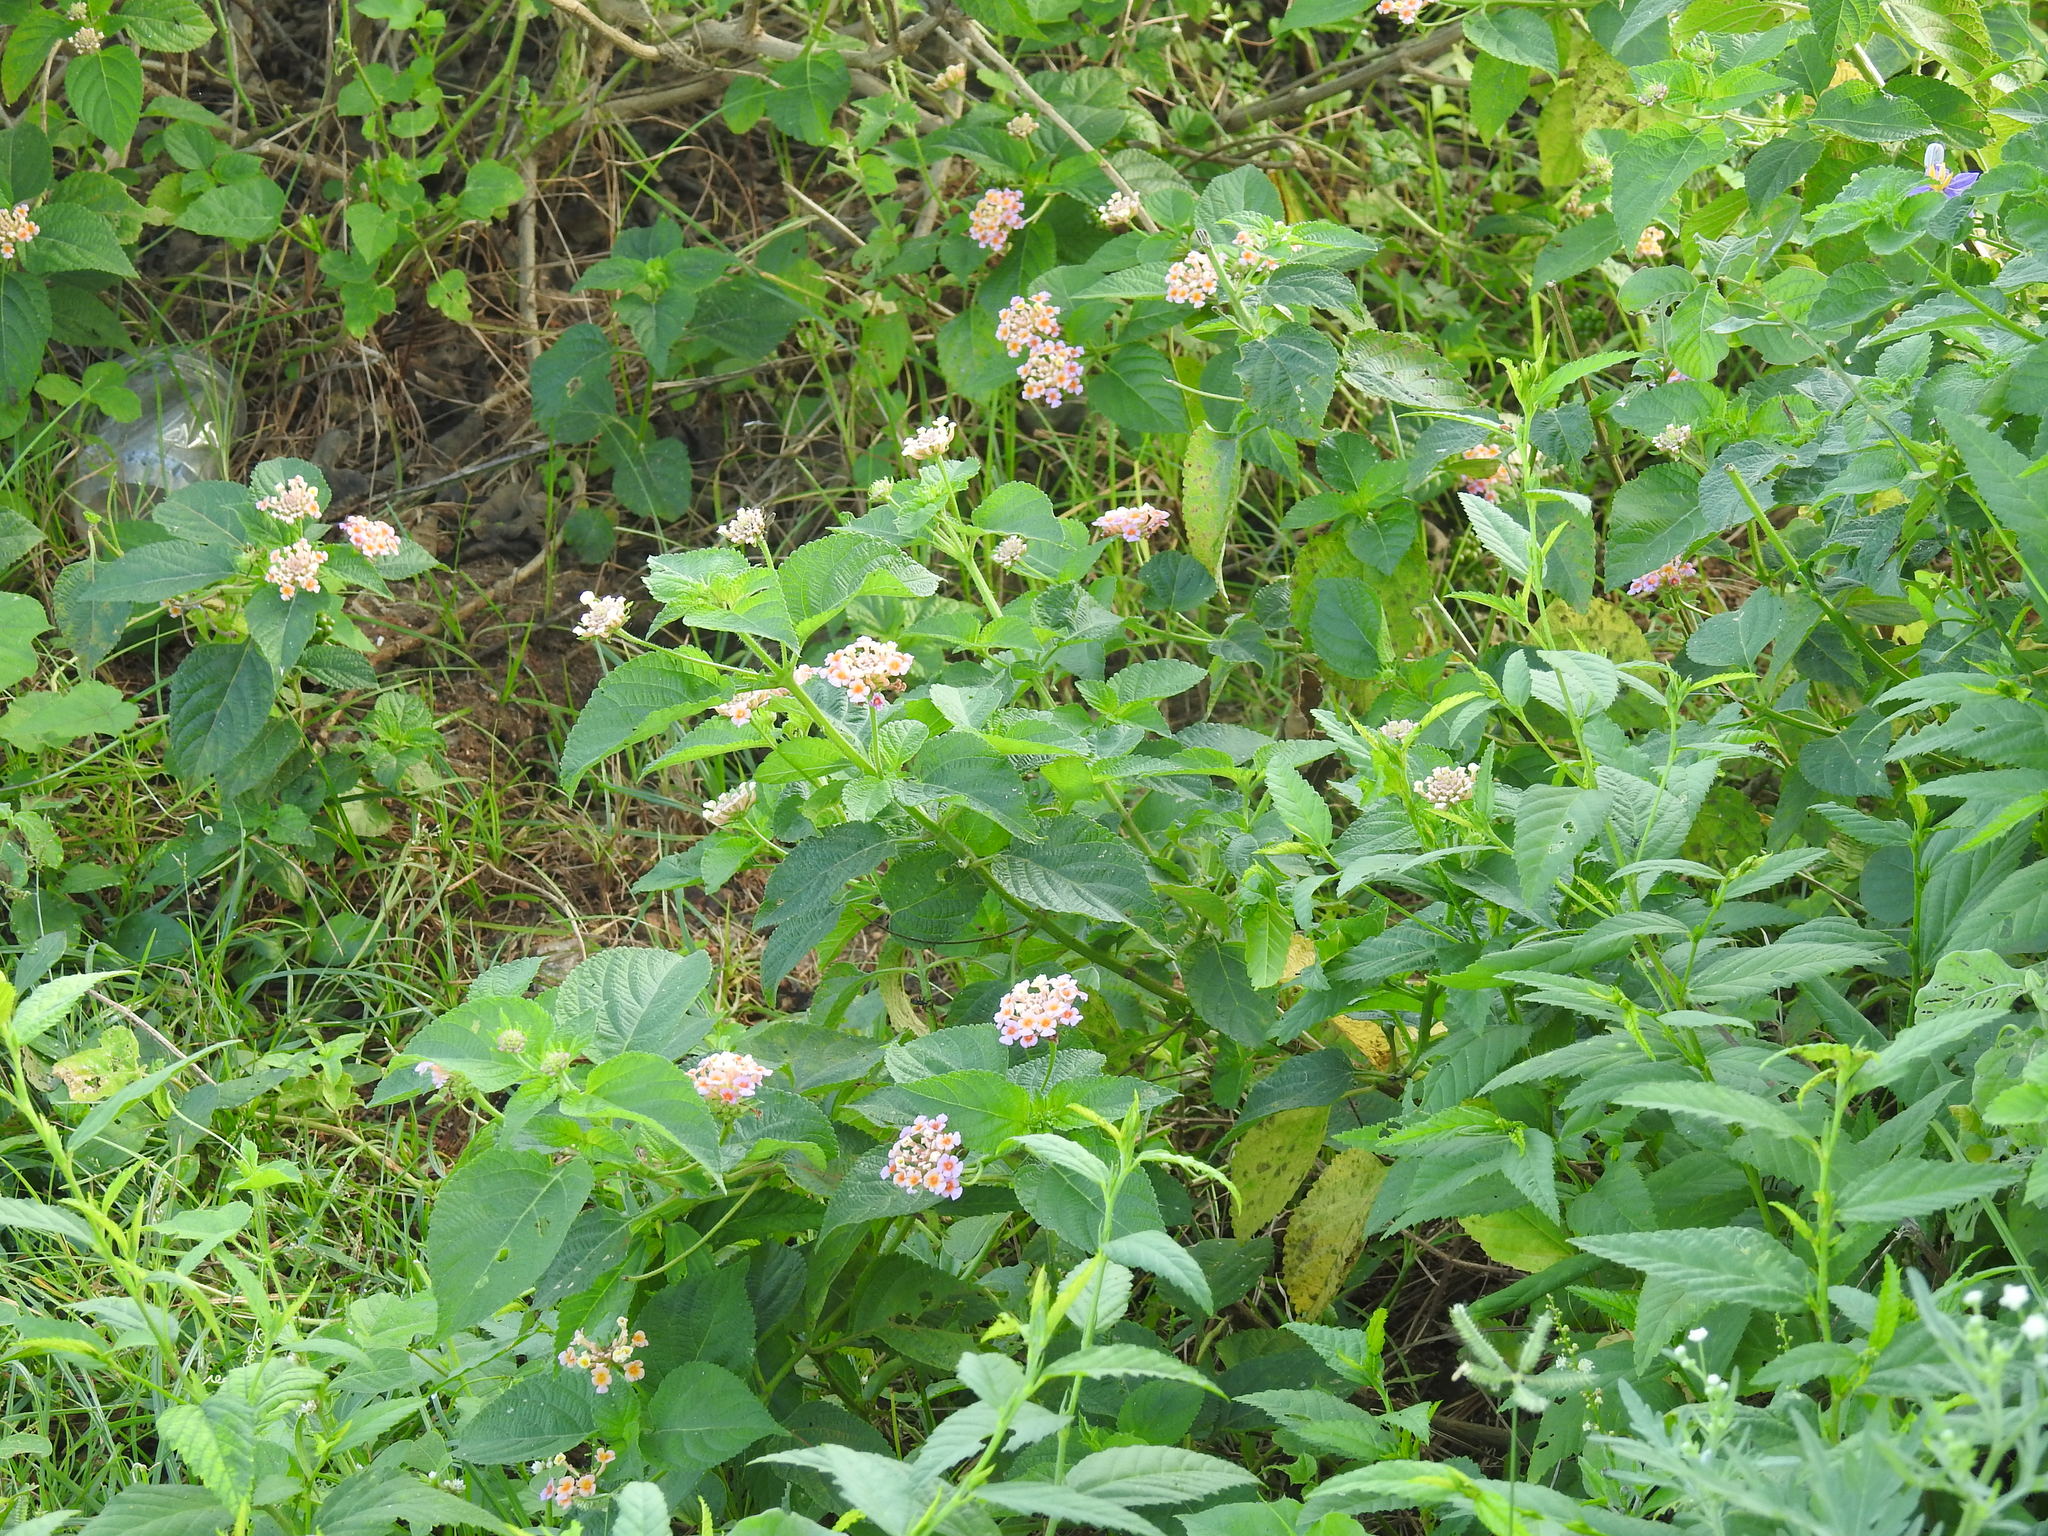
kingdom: Plantae
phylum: Tracheophyta
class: Magnoliopsida
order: Lamiales
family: Verbenaceae
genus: Lantana
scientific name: Lantana camara
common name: Lantana
